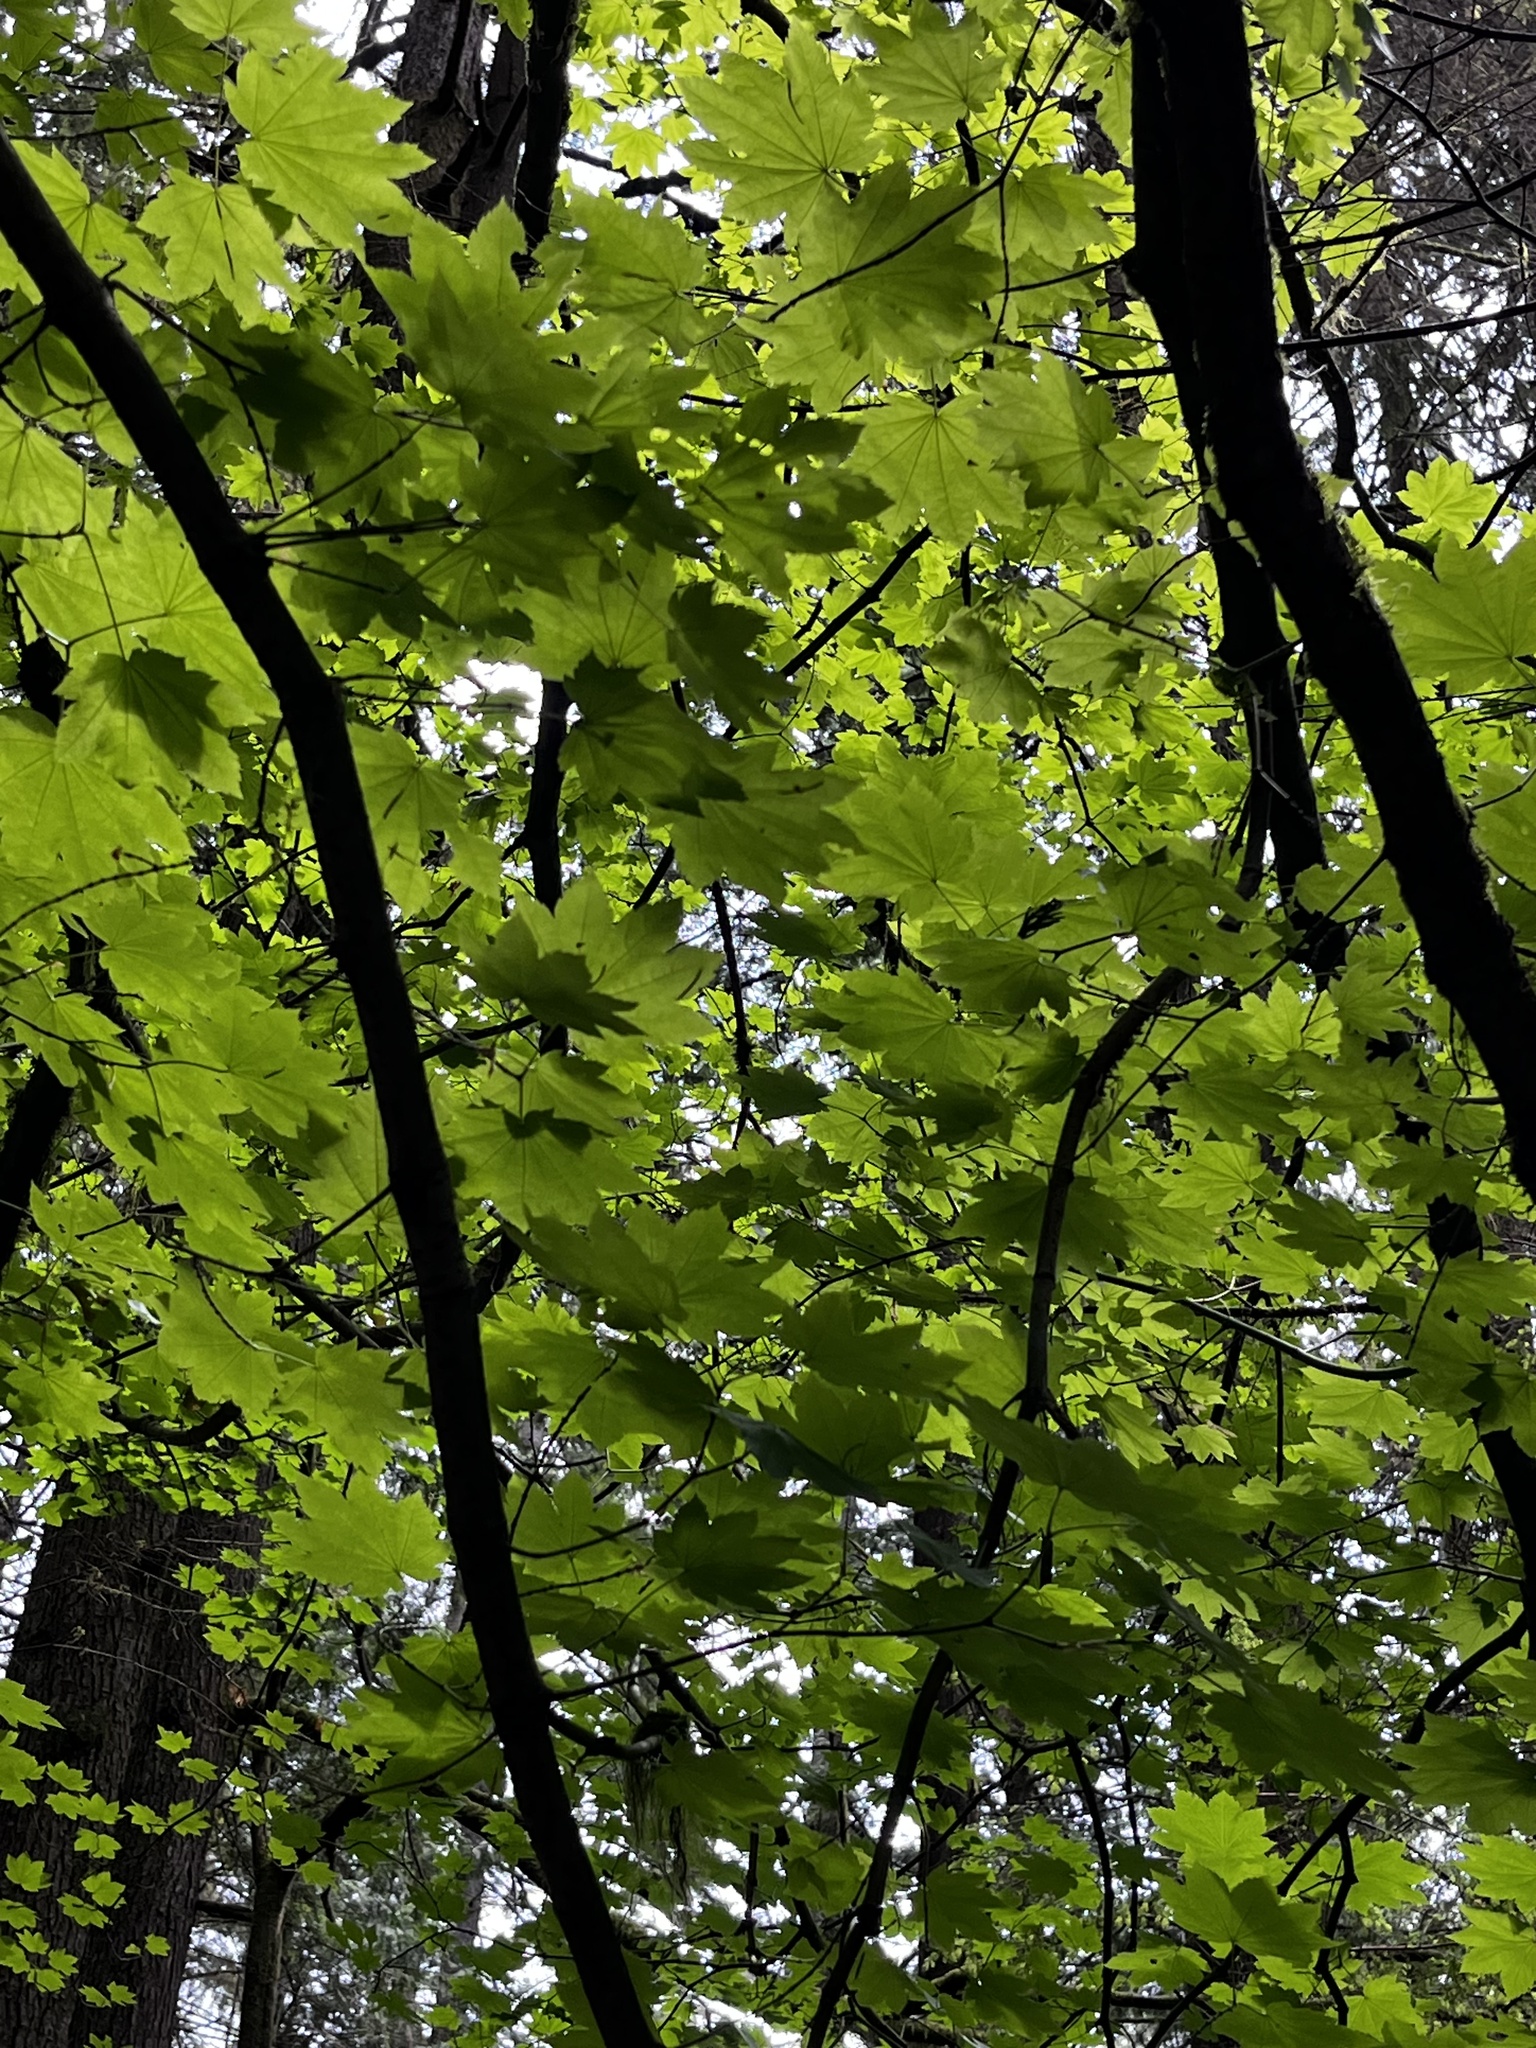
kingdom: Plantae
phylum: Tracheophyta
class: Magnoliopsida
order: Sapindales
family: Sapindaceae
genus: Acer
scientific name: Acer circinatum
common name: Vine maple
